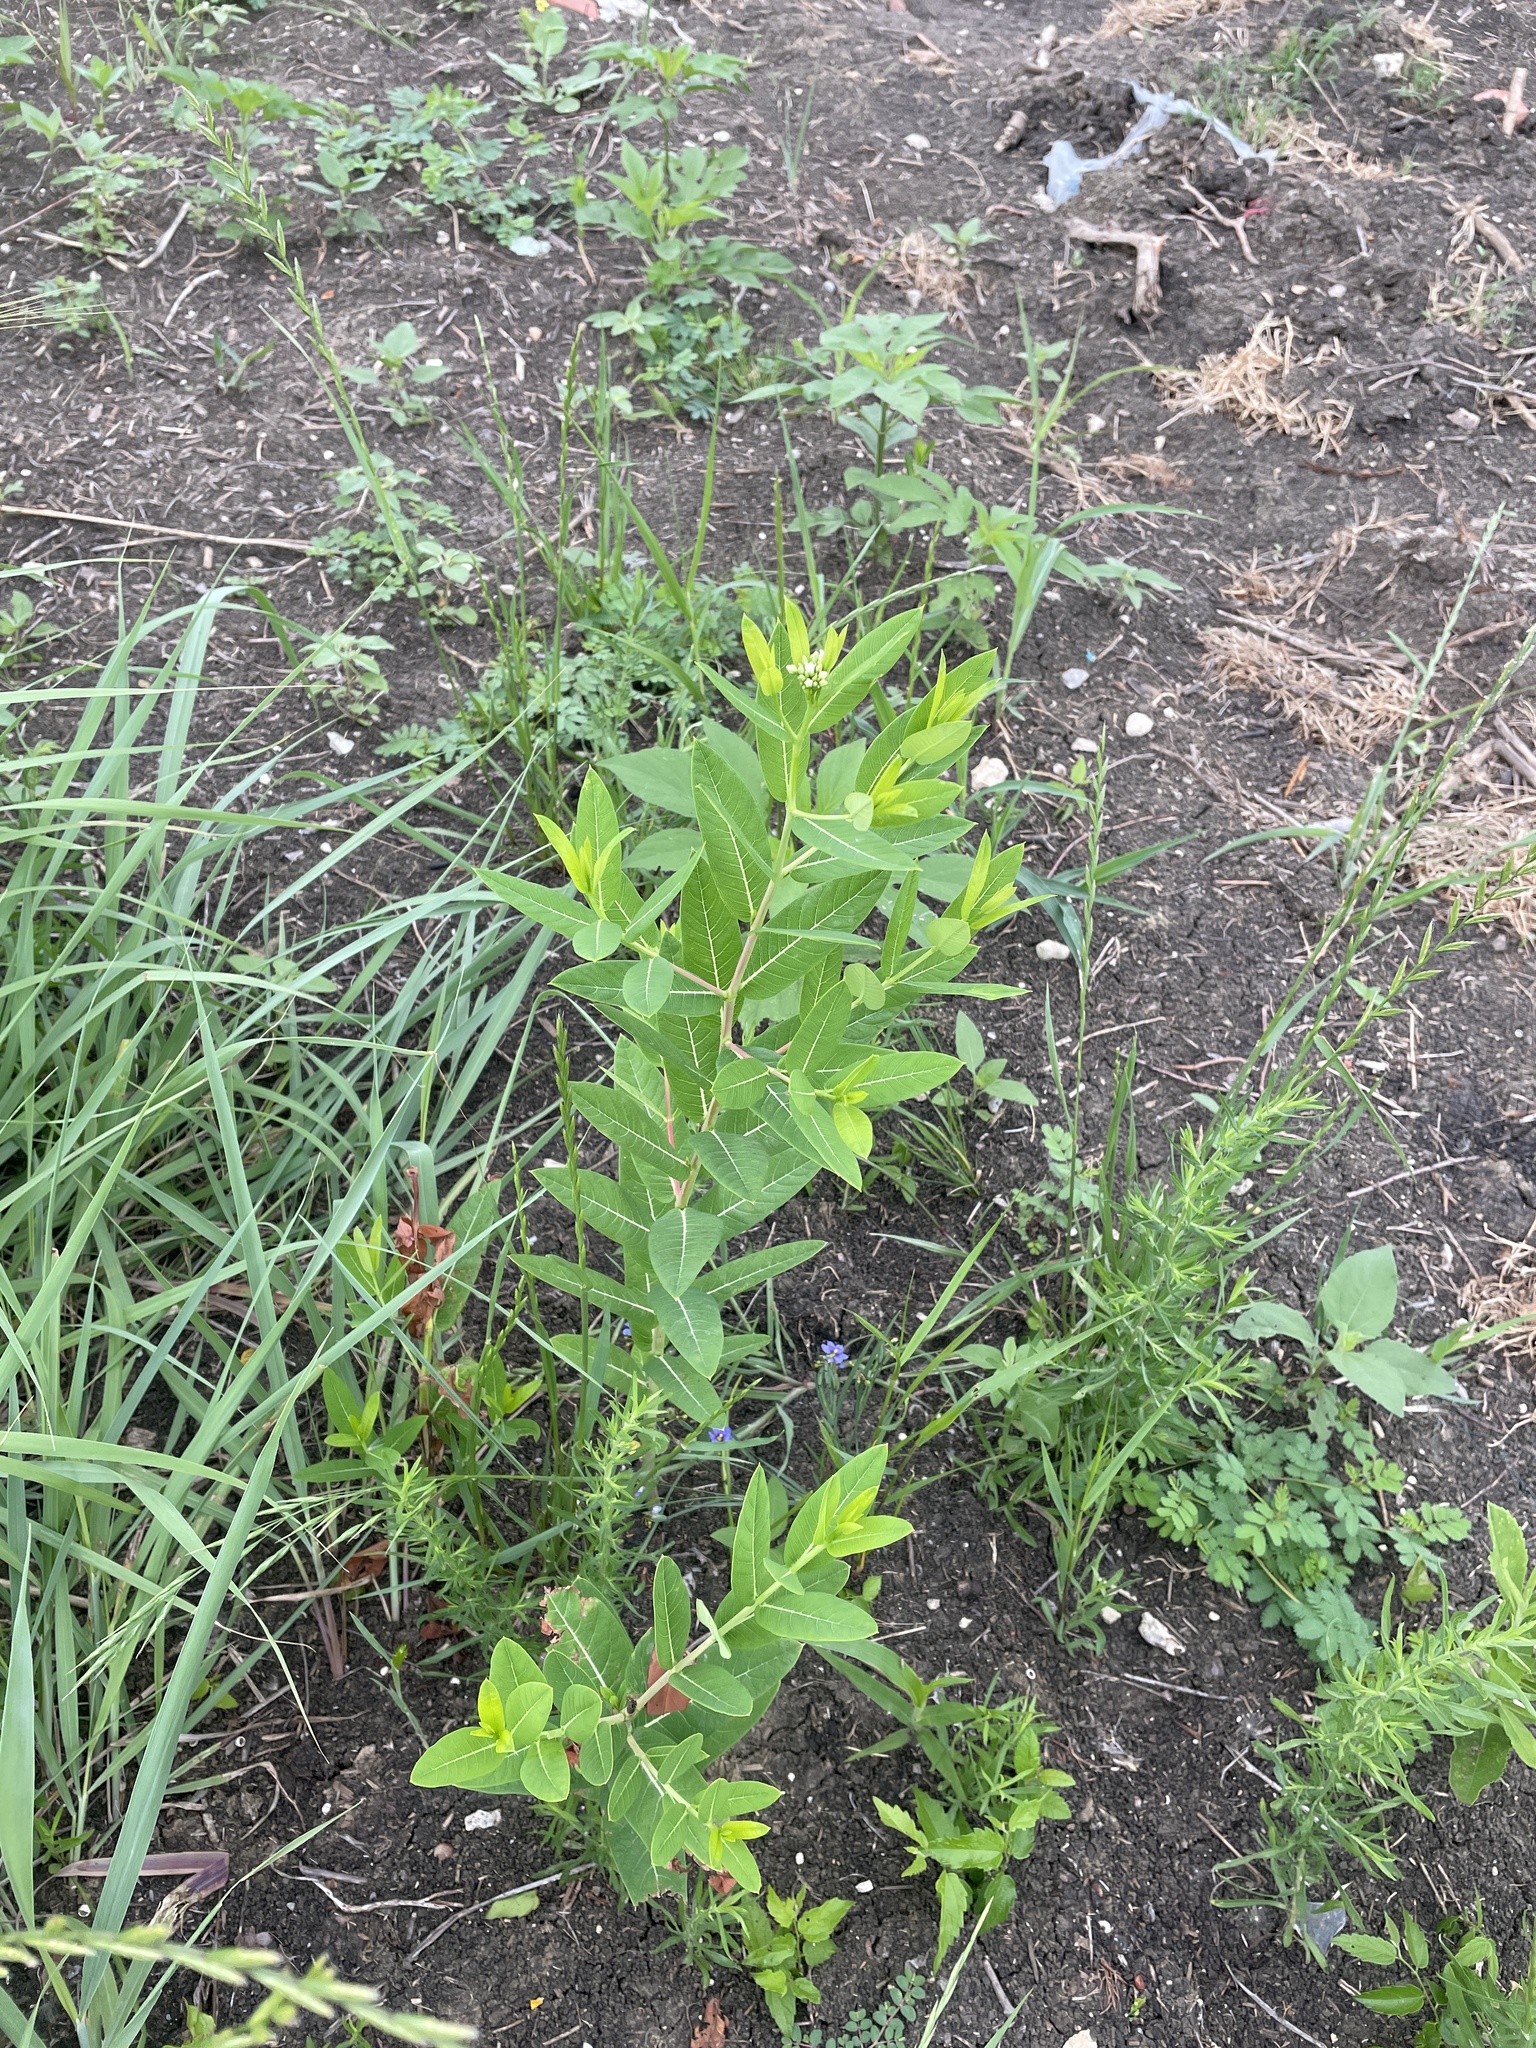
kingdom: Plantae
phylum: Tracheophyta
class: Magnoliopsida
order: Gentianales
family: Apocynaceae
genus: Apocynum
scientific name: Apocynum cannabinum
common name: Hemp dogbane
